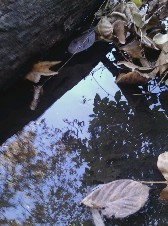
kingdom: Animalia
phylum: Arthropoda
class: Insecta
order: Hemiptera
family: Gerridae
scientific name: Gerridae
